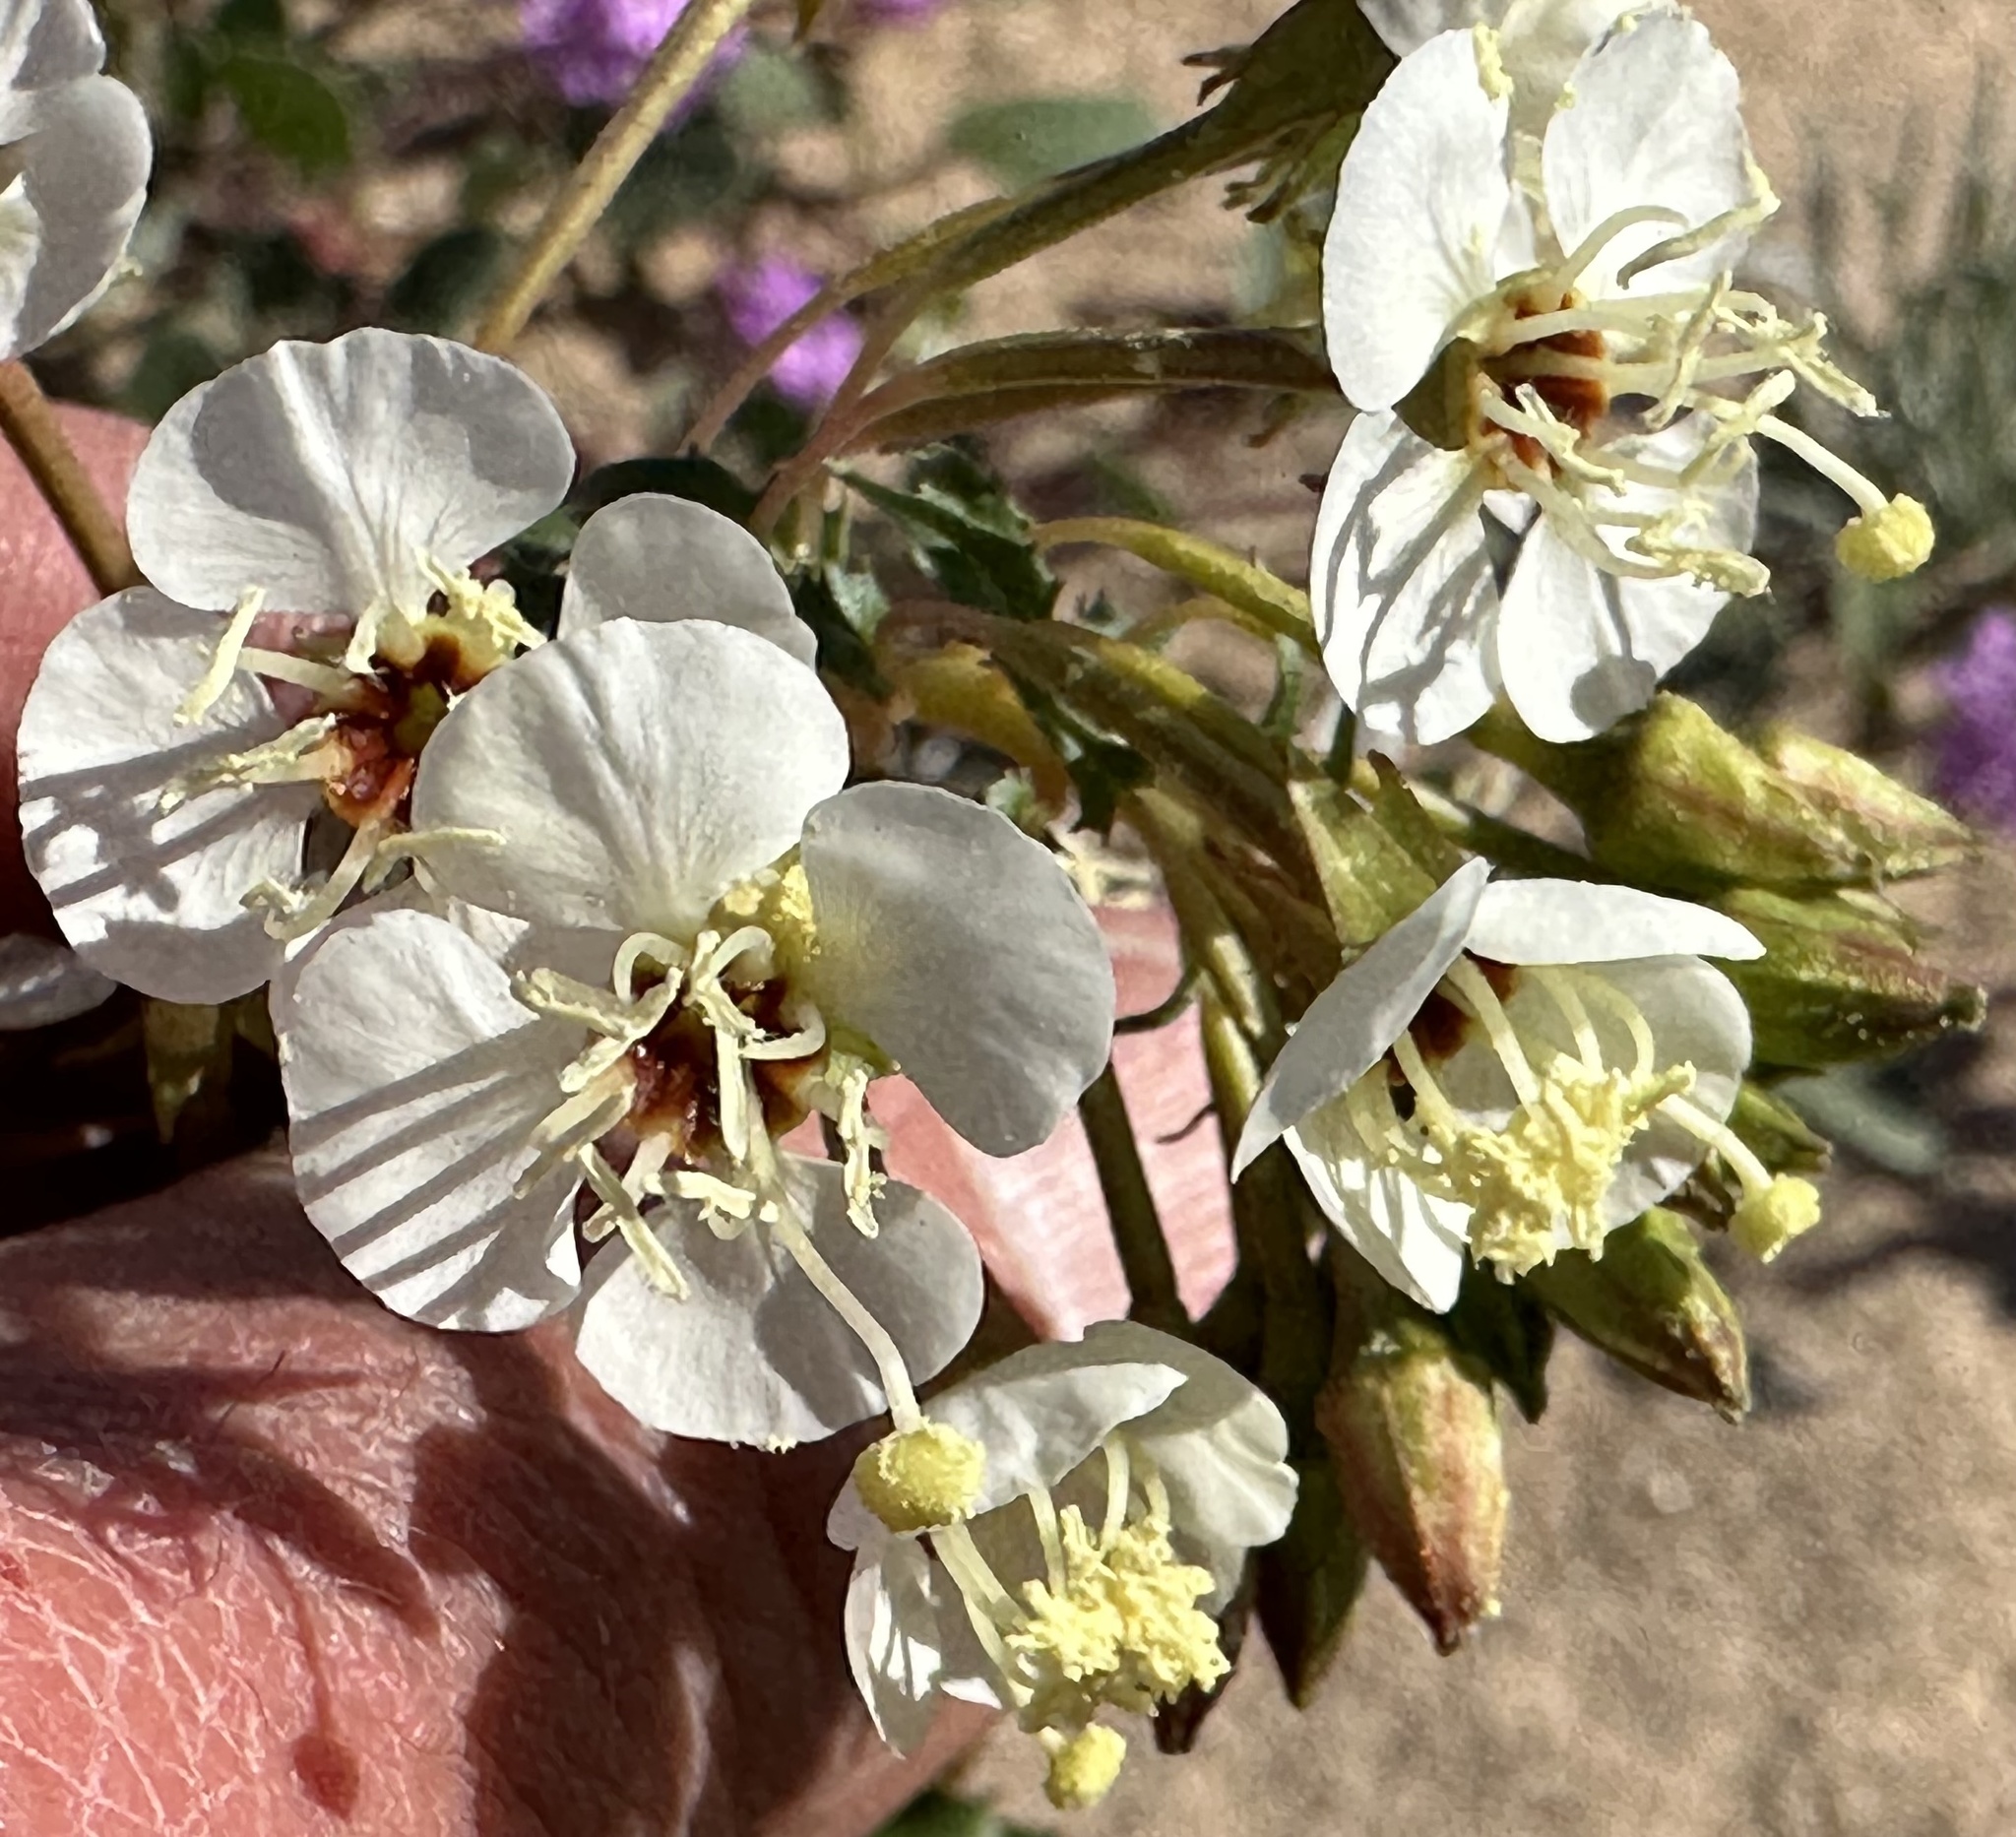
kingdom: Plantae
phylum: Tracheophyta
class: Magnoliopsida
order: Myrtales
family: Onagraceae
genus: Chylismia
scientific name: Chylismia claviformis
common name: Browneyes
